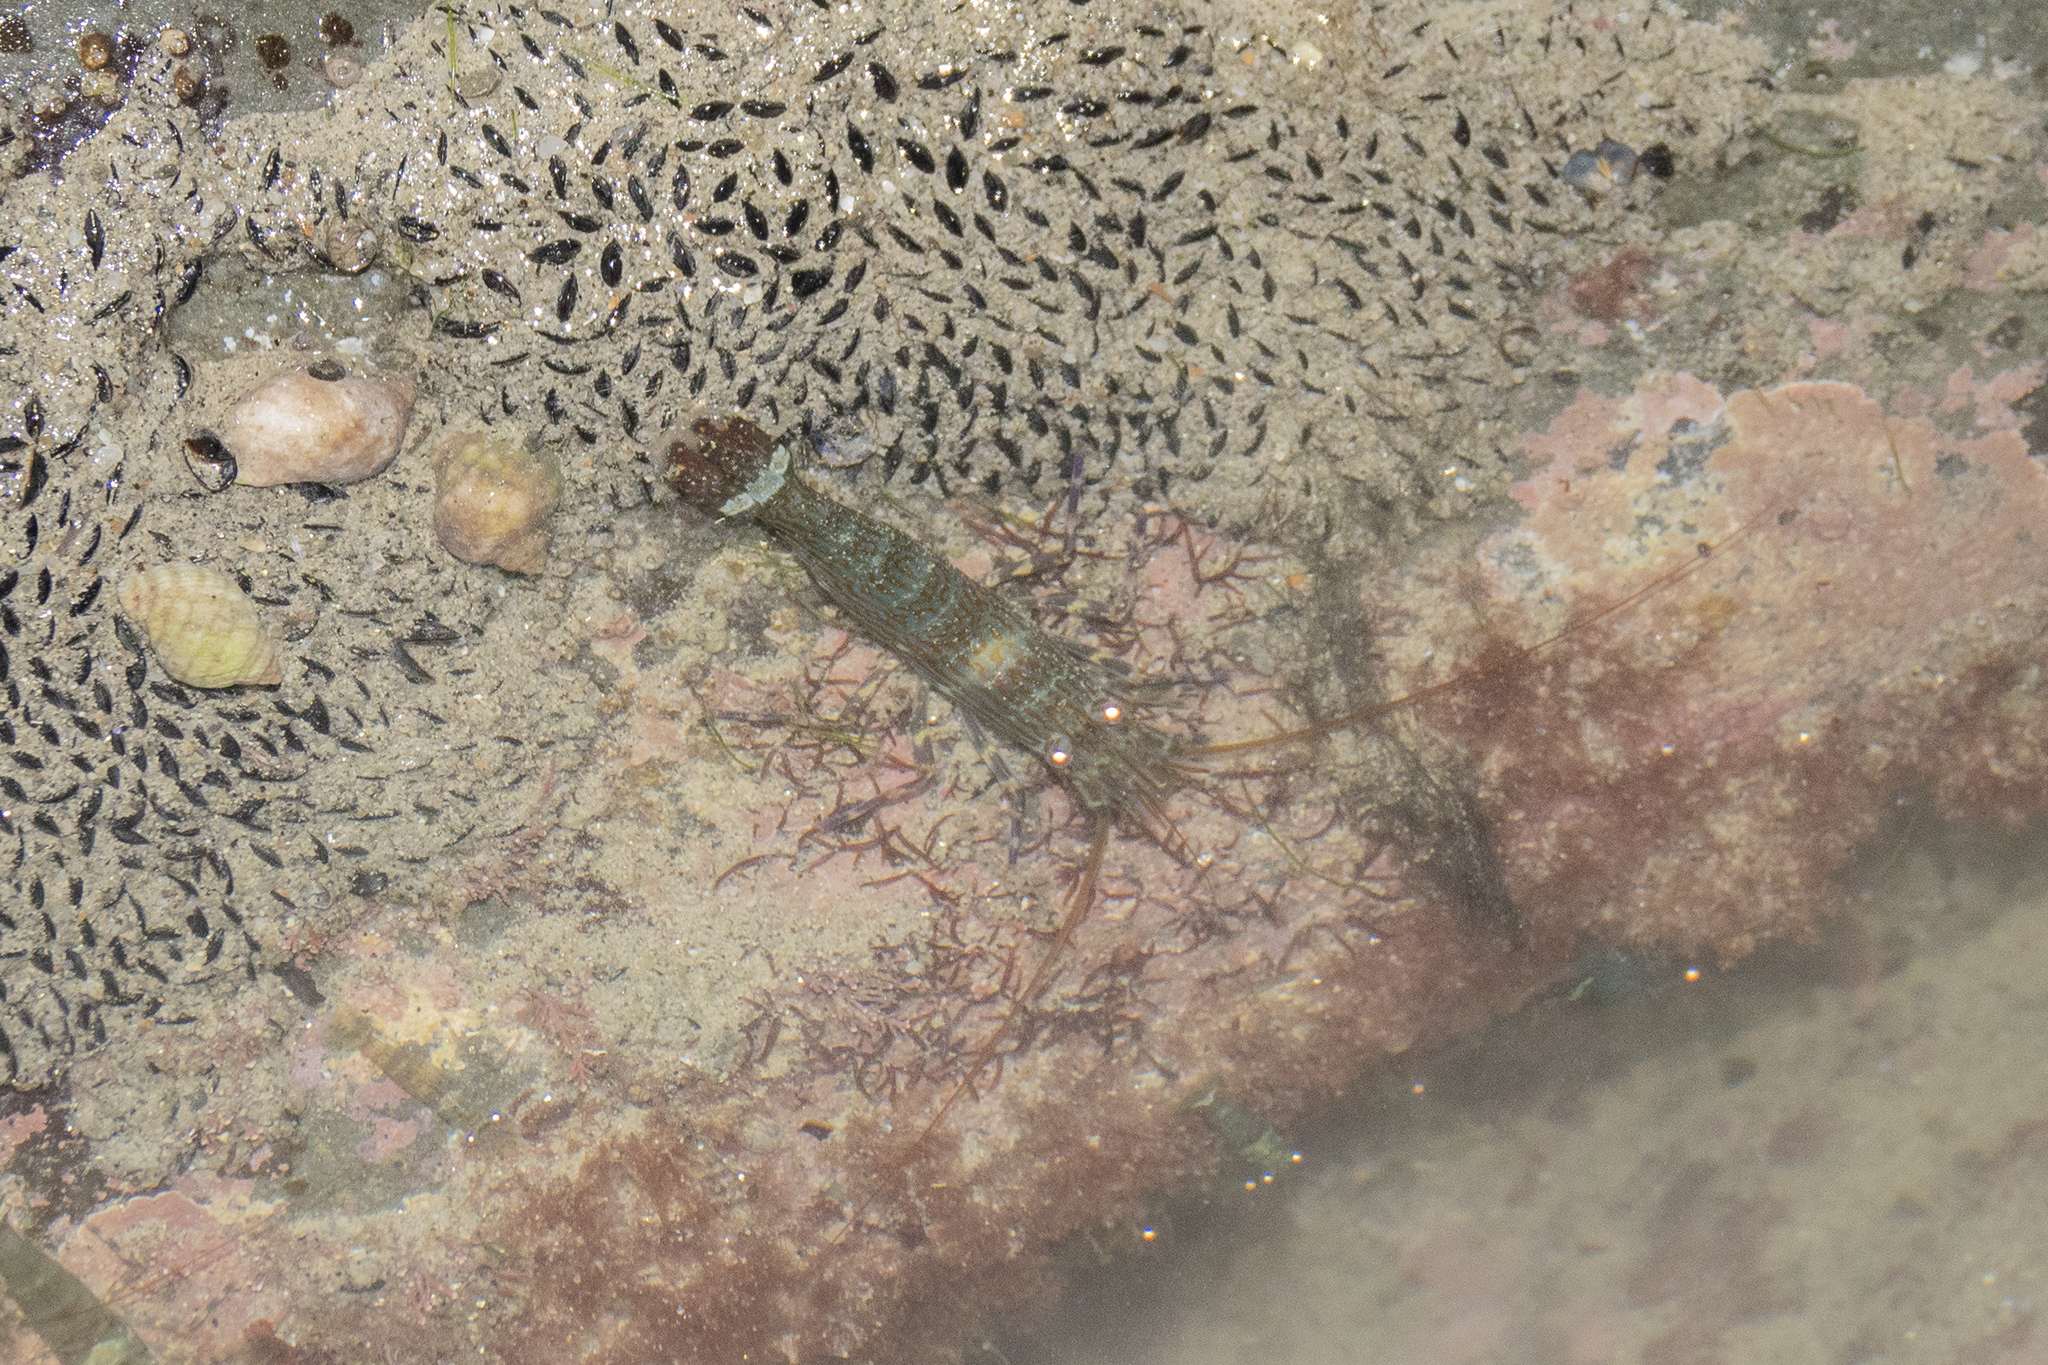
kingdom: Animalia
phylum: Arthropoda
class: Malacostraca
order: Decapoda
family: Hippolytidae
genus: Alope
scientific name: Alope spinifrons
